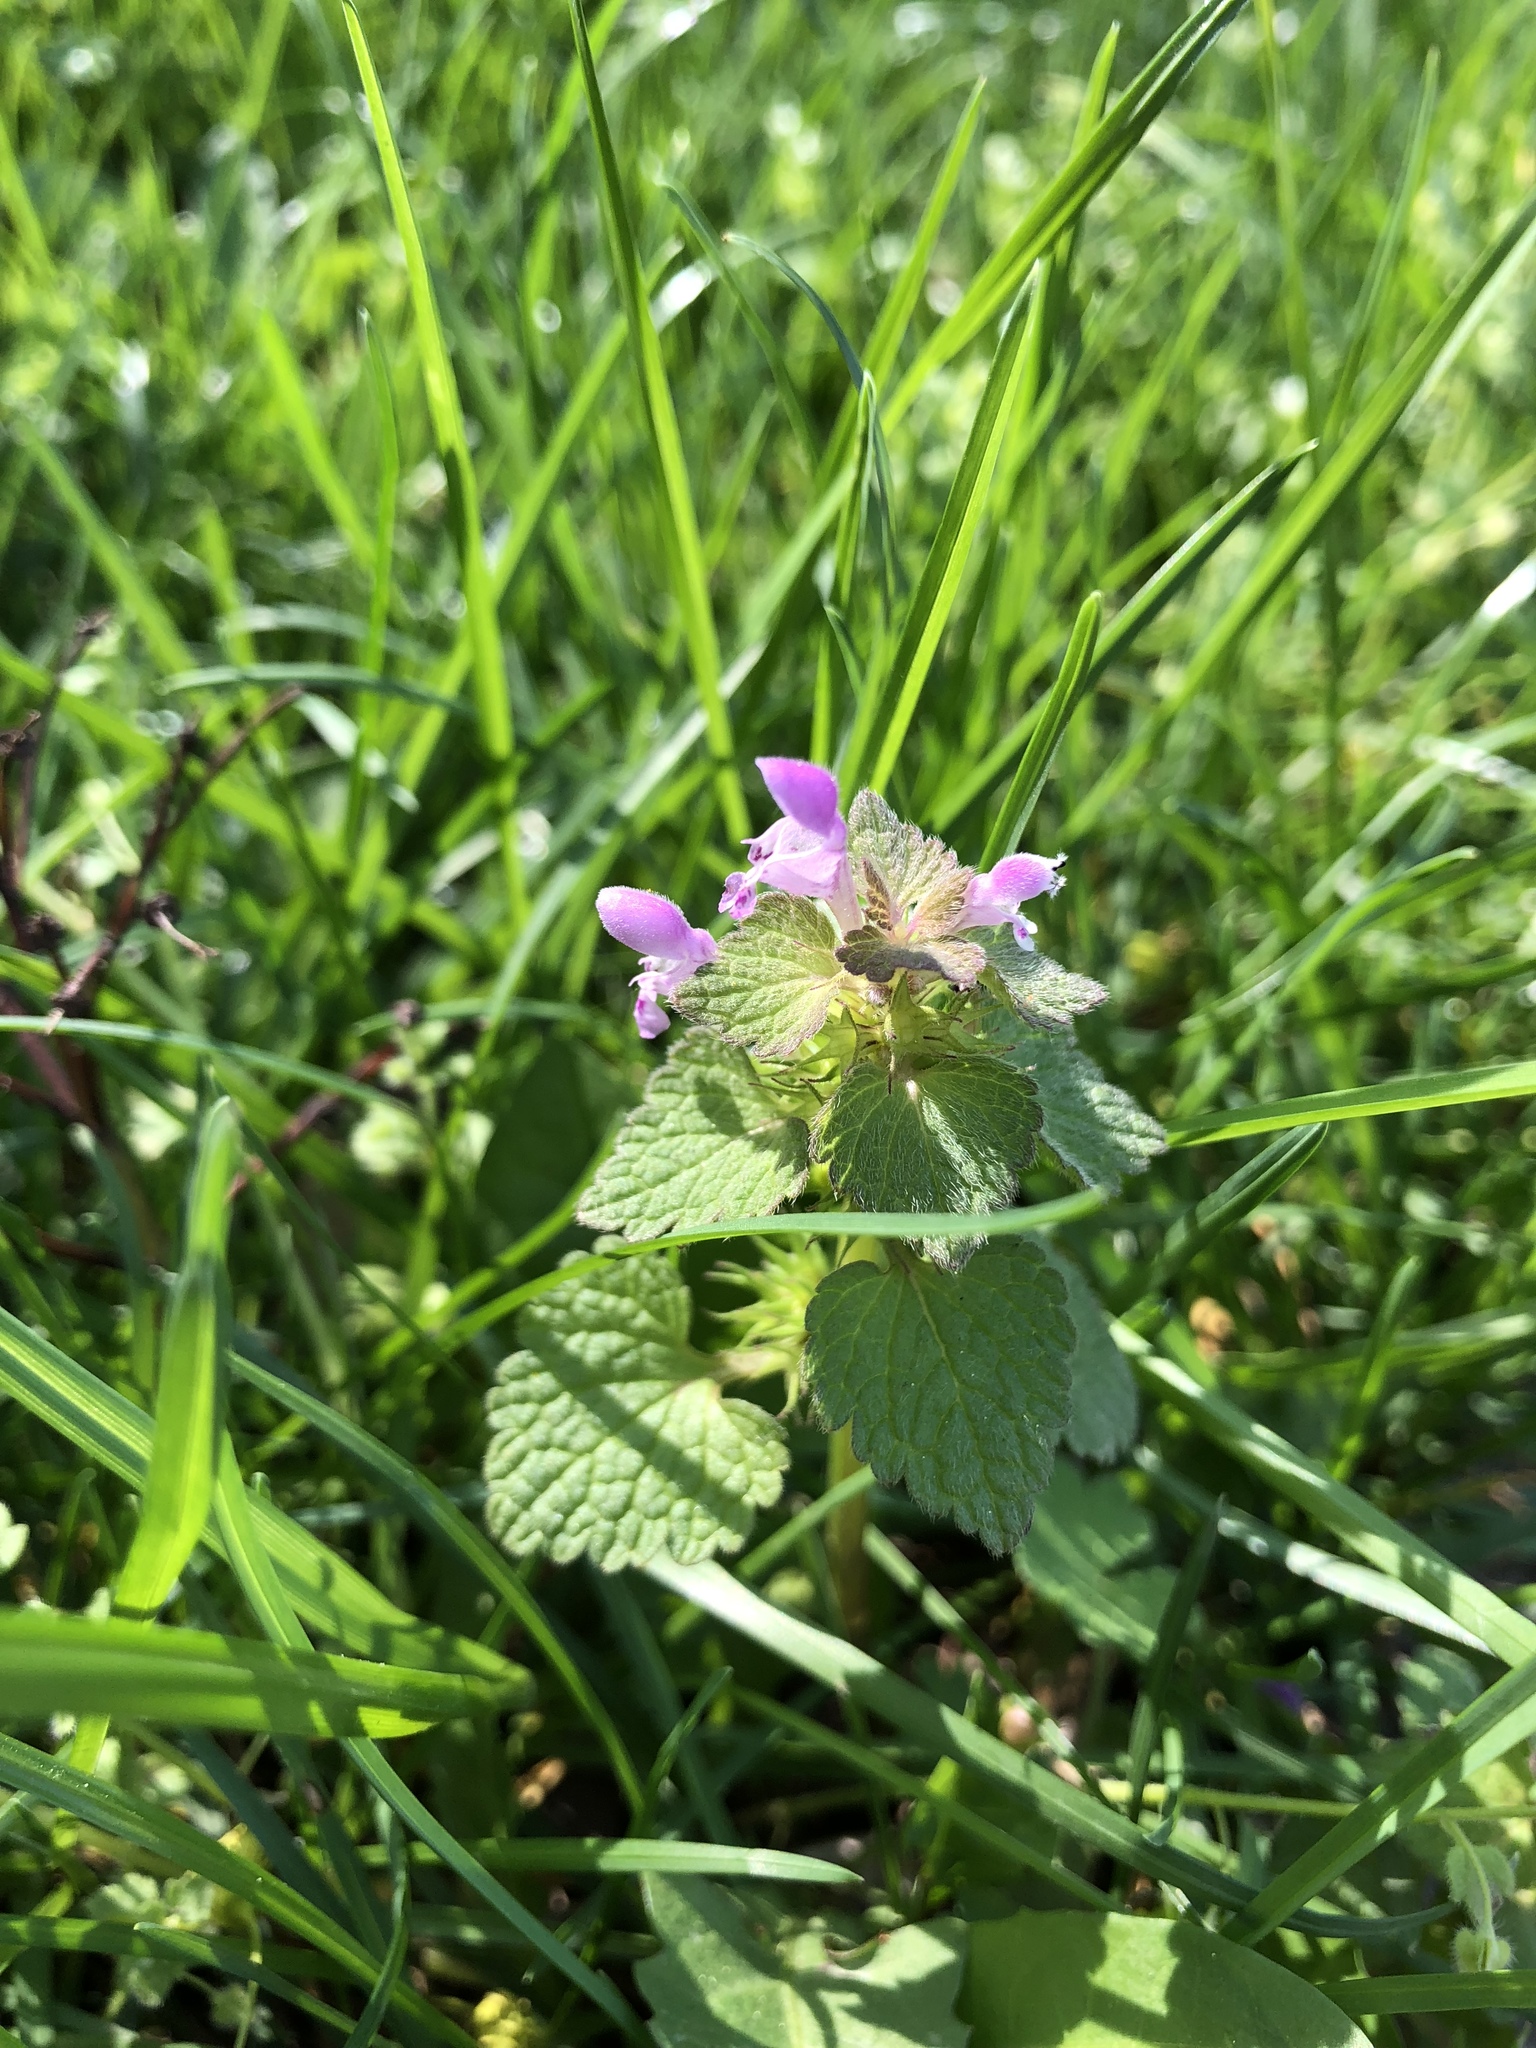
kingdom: Plantae
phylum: Tracheophyta
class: Magnoliopsida
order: Lamiales
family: Lamiaceae
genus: Lamium
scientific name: Lamium purpureum
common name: Red dead-nettle
